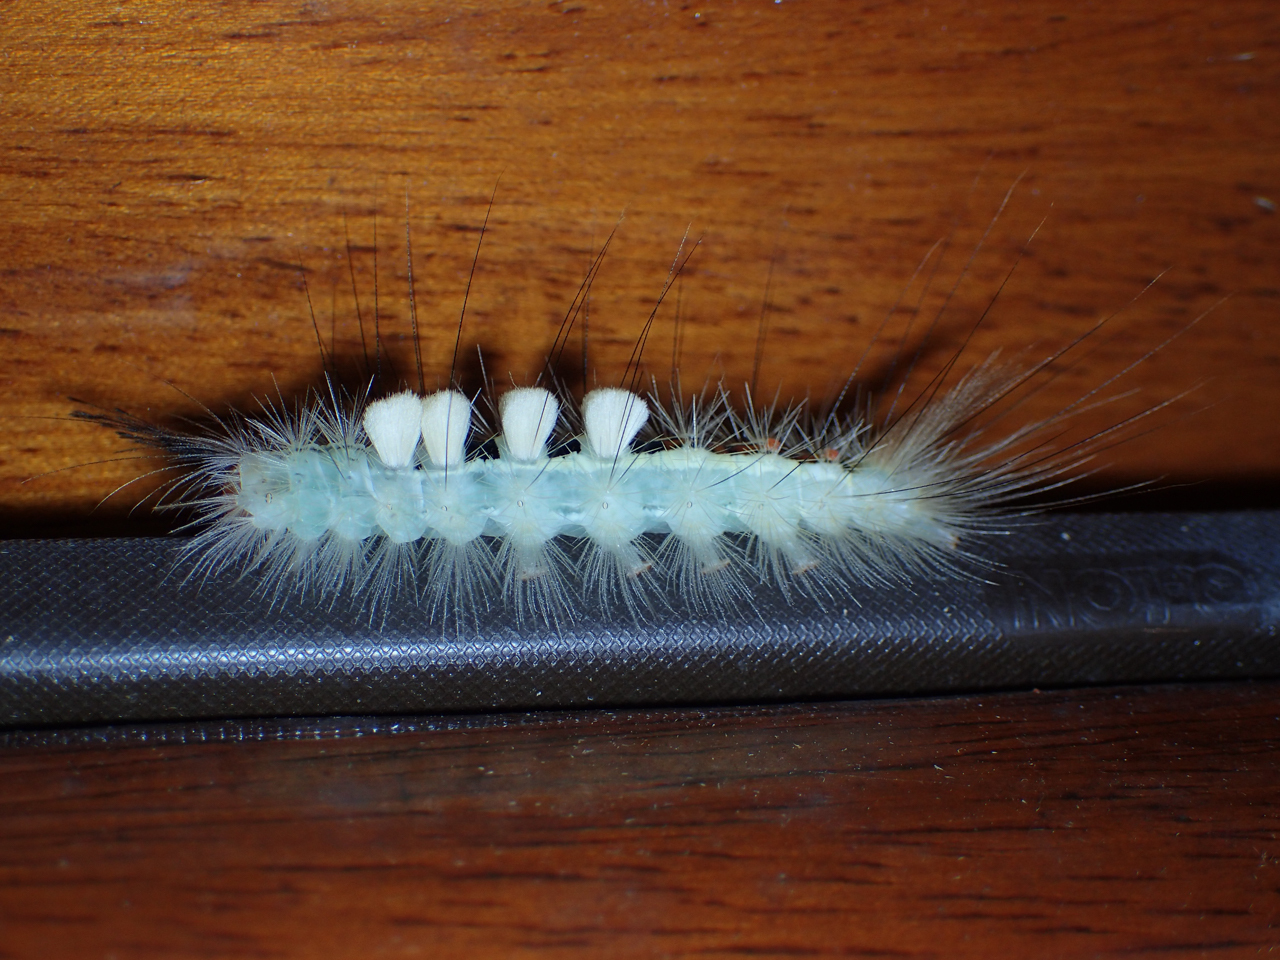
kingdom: Animalia
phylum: Arthropoda
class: Insecta
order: Lepidoptera
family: Erebidae
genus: Orgyia
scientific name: Orgyia leucostigma
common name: White-marked tussock moth
